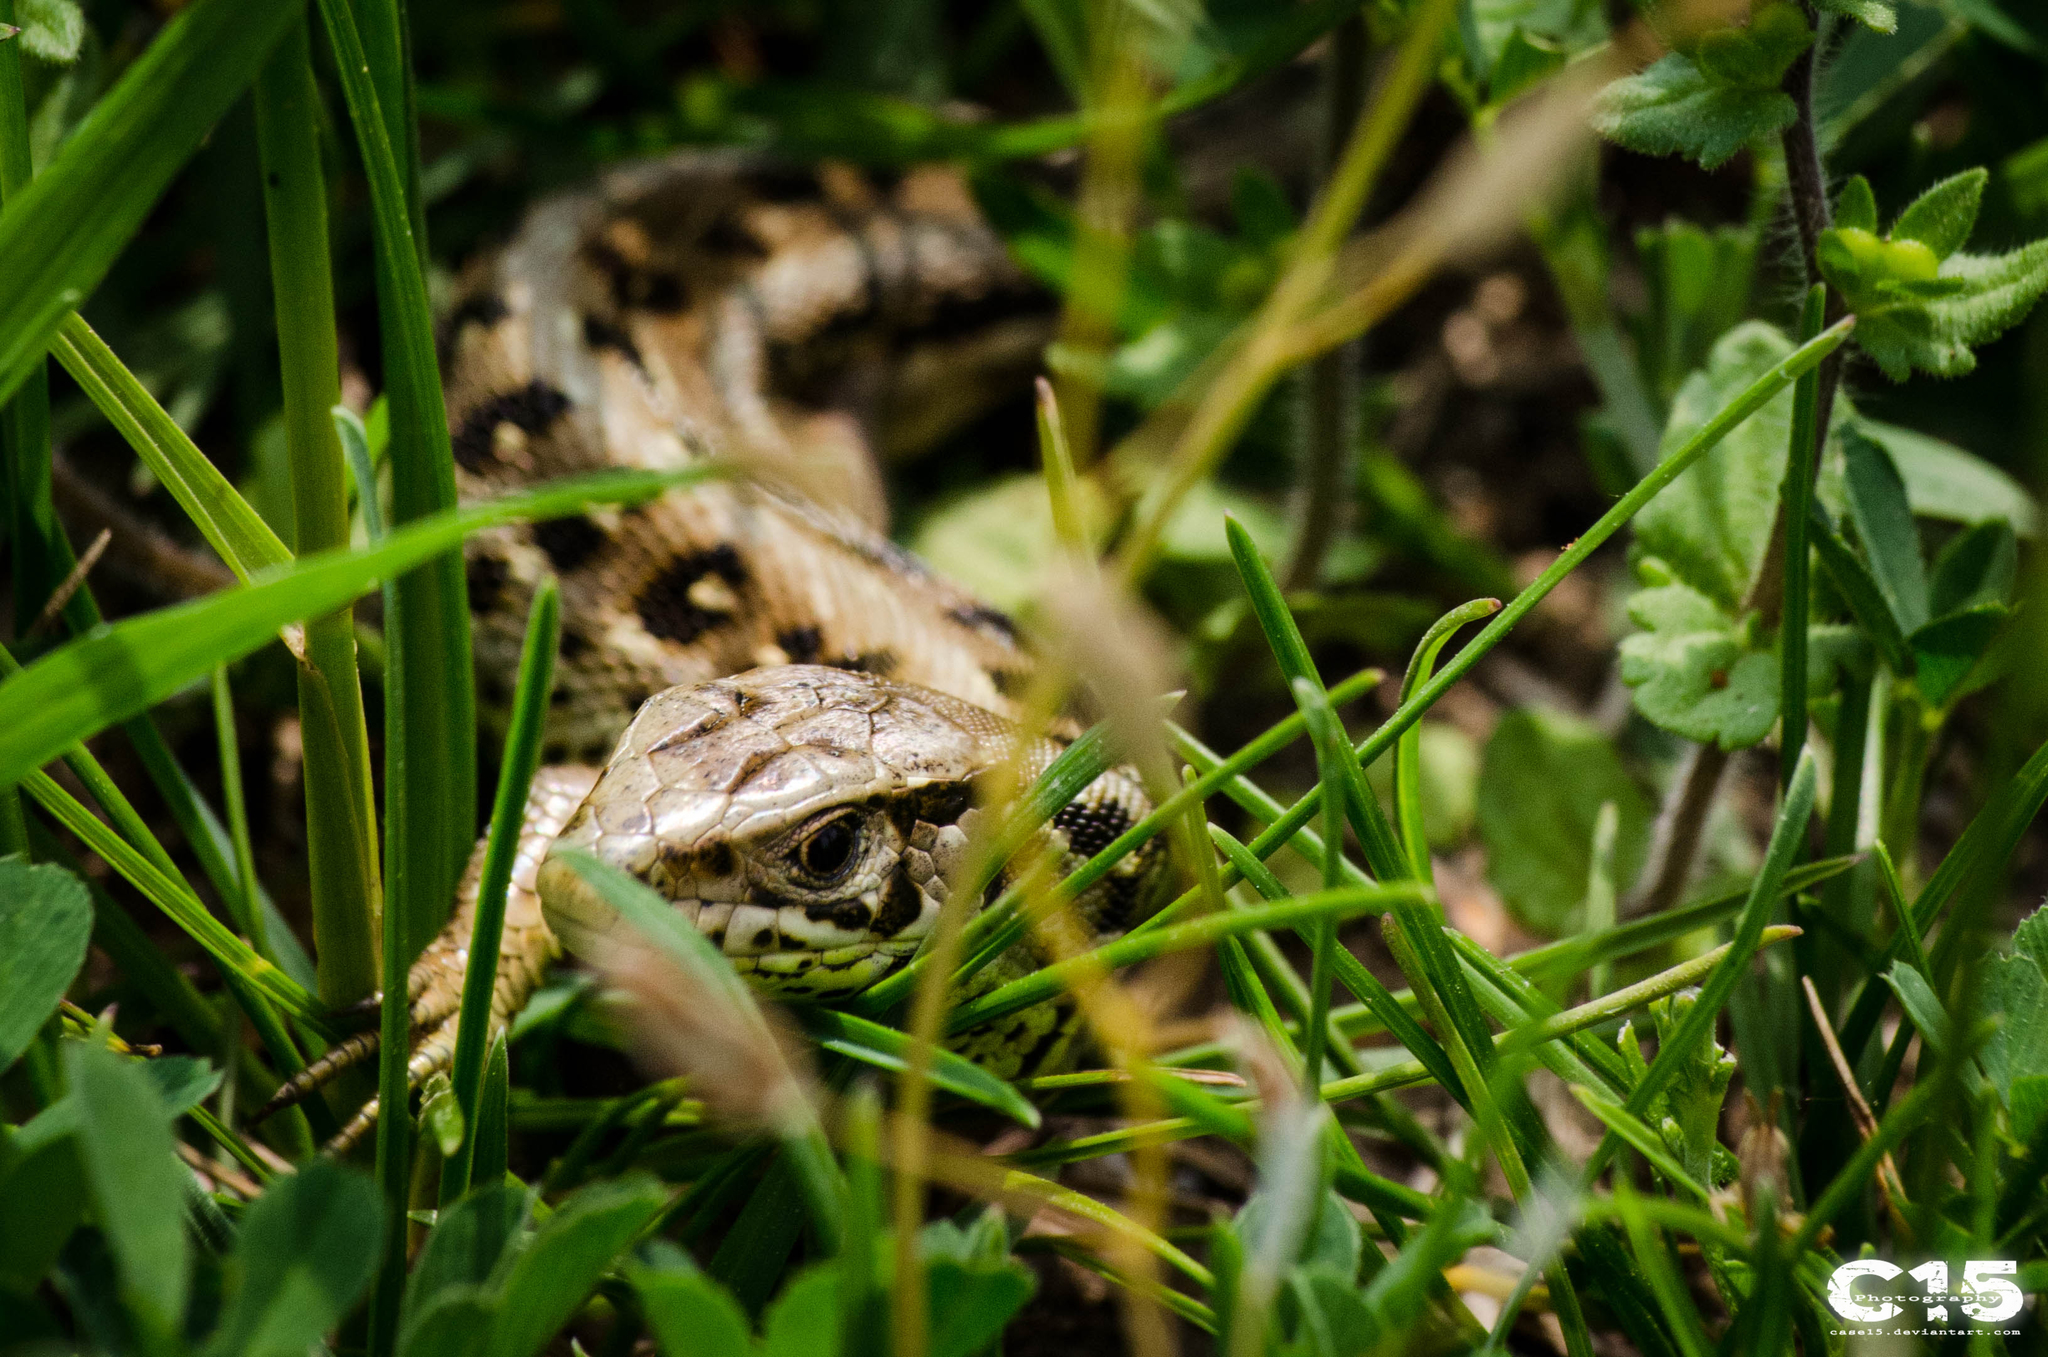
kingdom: Animalia
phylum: Chordata
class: Squamata
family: Lacertidae
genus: Podarcis
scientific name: Podarcis muralis
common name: Common wall lizard
